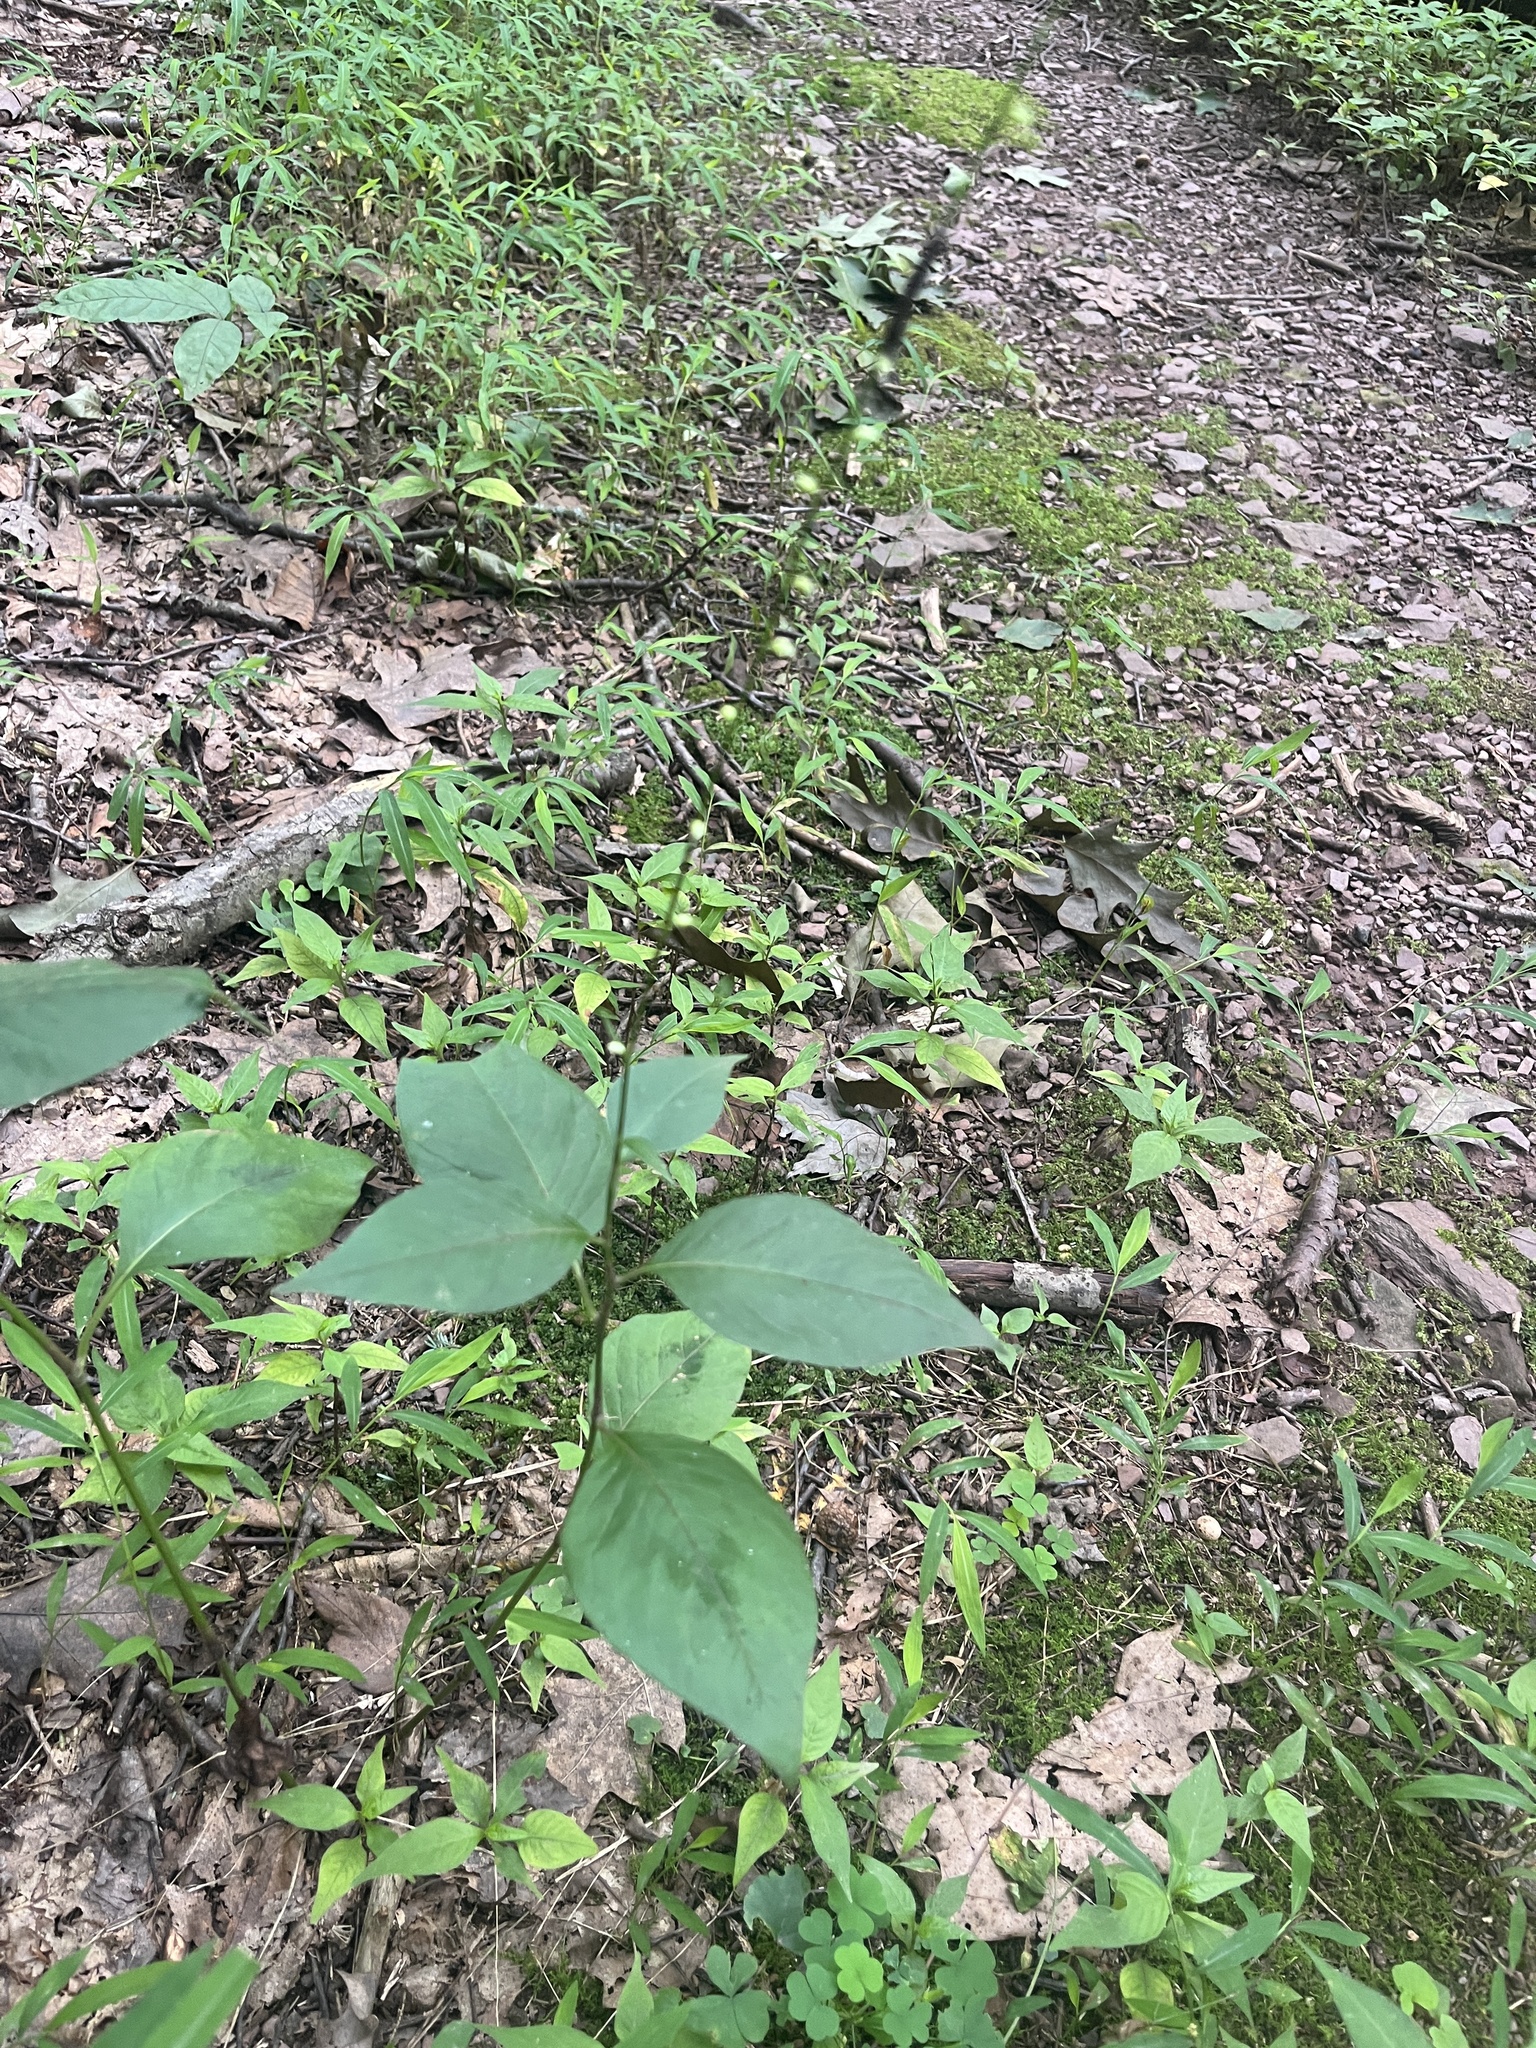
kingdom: Plantae
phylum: Tracheophyta
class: Magnoliopsida
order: Caryophyllales
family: Polygonaceae
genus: Persicaria
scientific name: Persicaria virginiana
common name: Jumpseed
